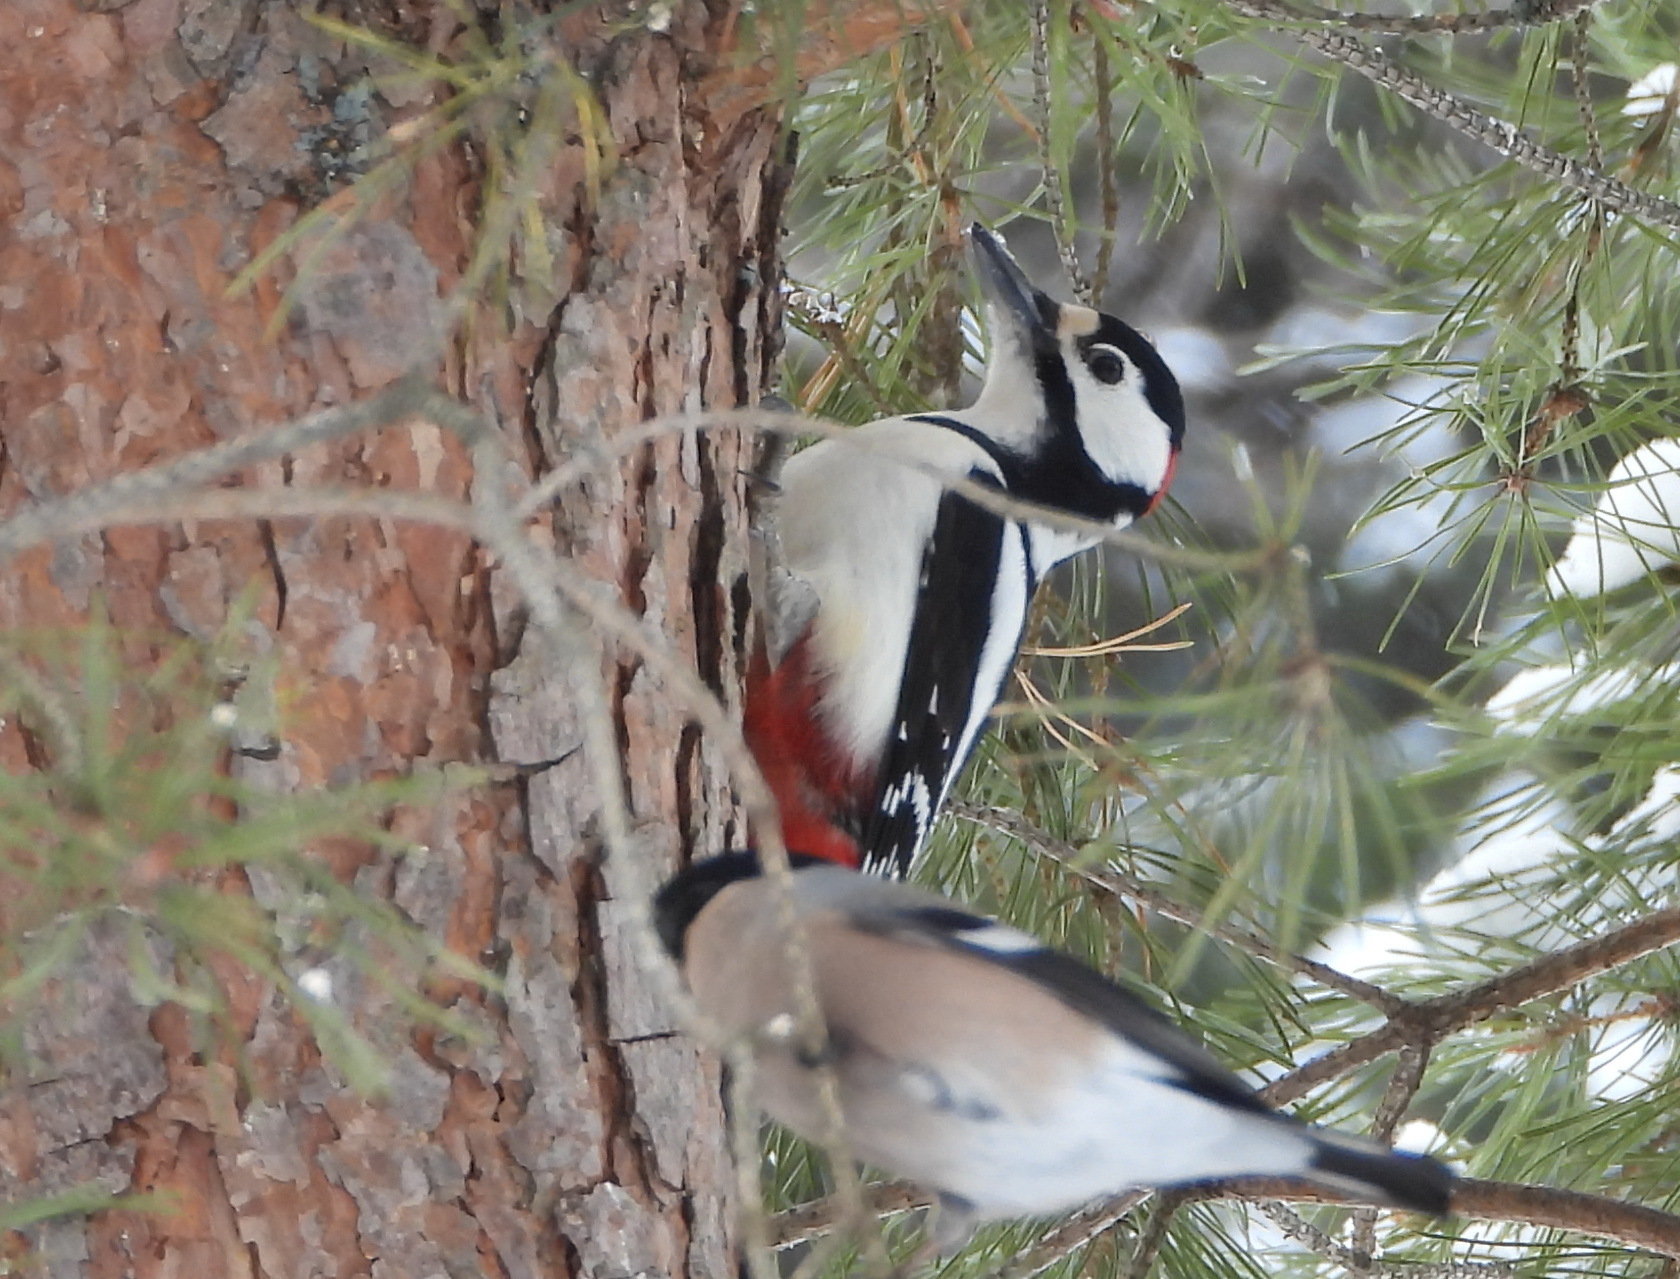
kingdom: Animalia
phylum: Chordata
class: Aves
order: Piciformes
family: Picidae
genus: Dendrocopos
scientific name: Dendrocopos major
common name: Great spotted woodpecker
